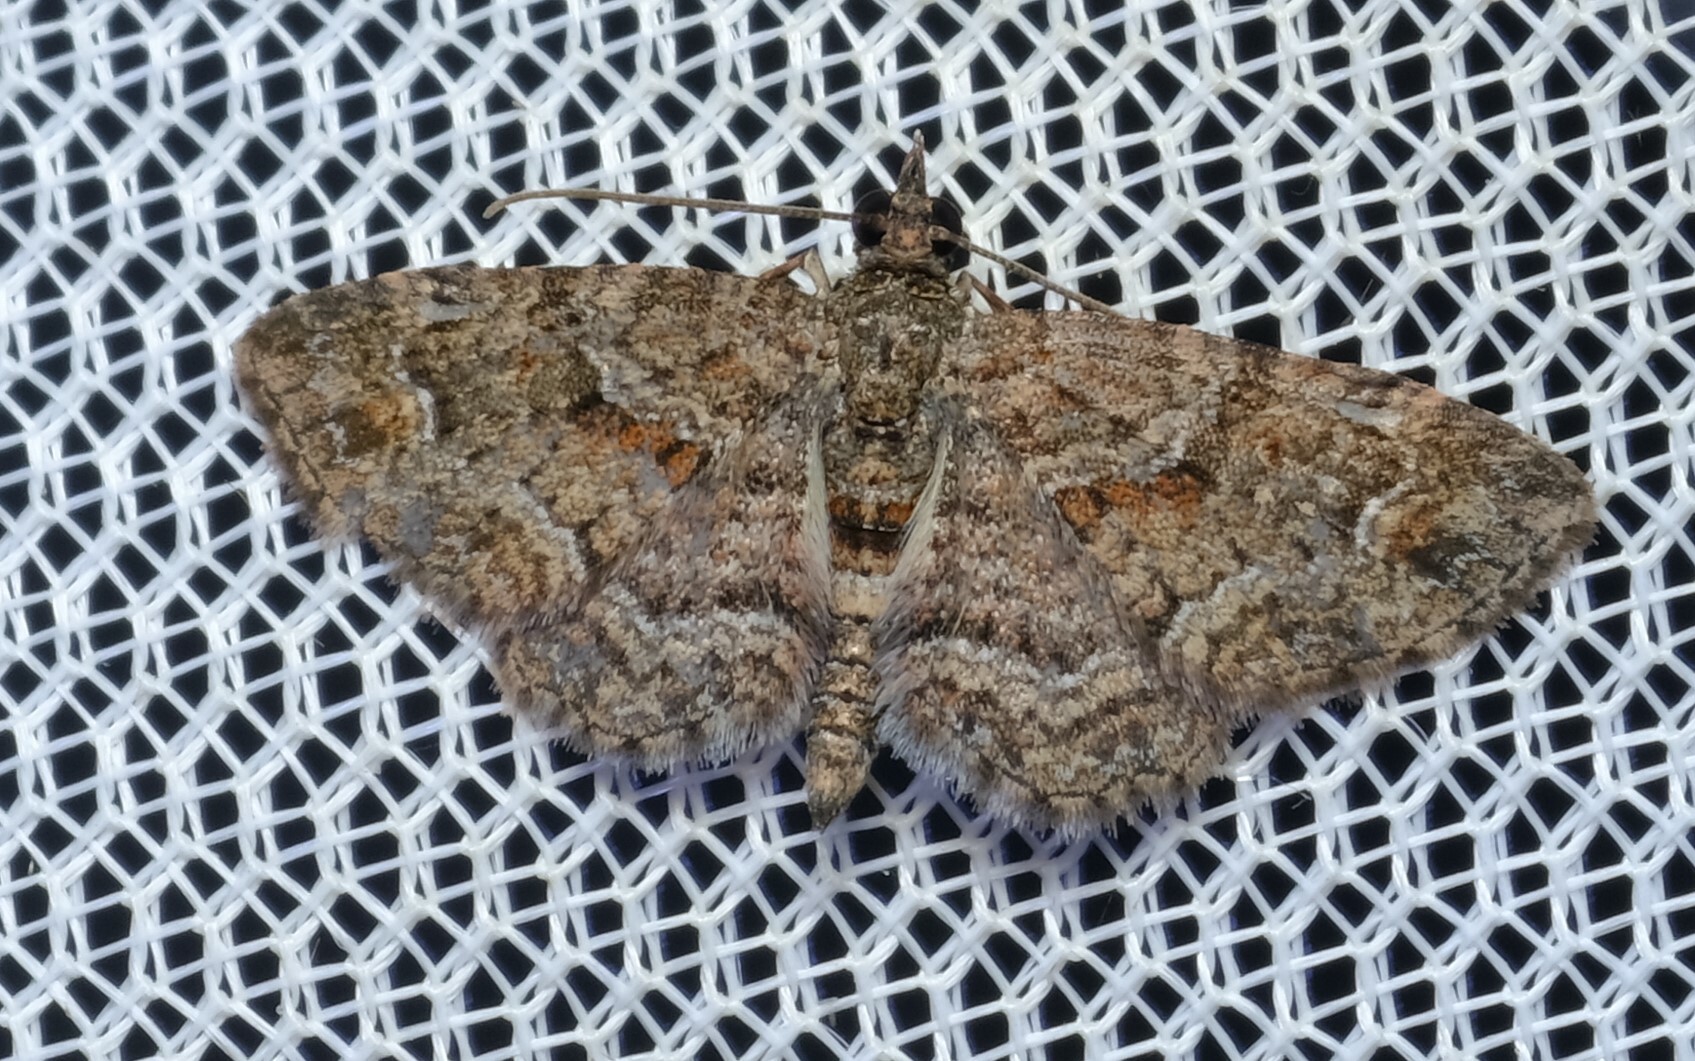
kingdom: Animalia
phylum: Arthropoda
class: Insecta
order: Lepidoptera
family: Geometridae
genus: Pasiphilodes
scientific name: Pasiphilodes testulata
